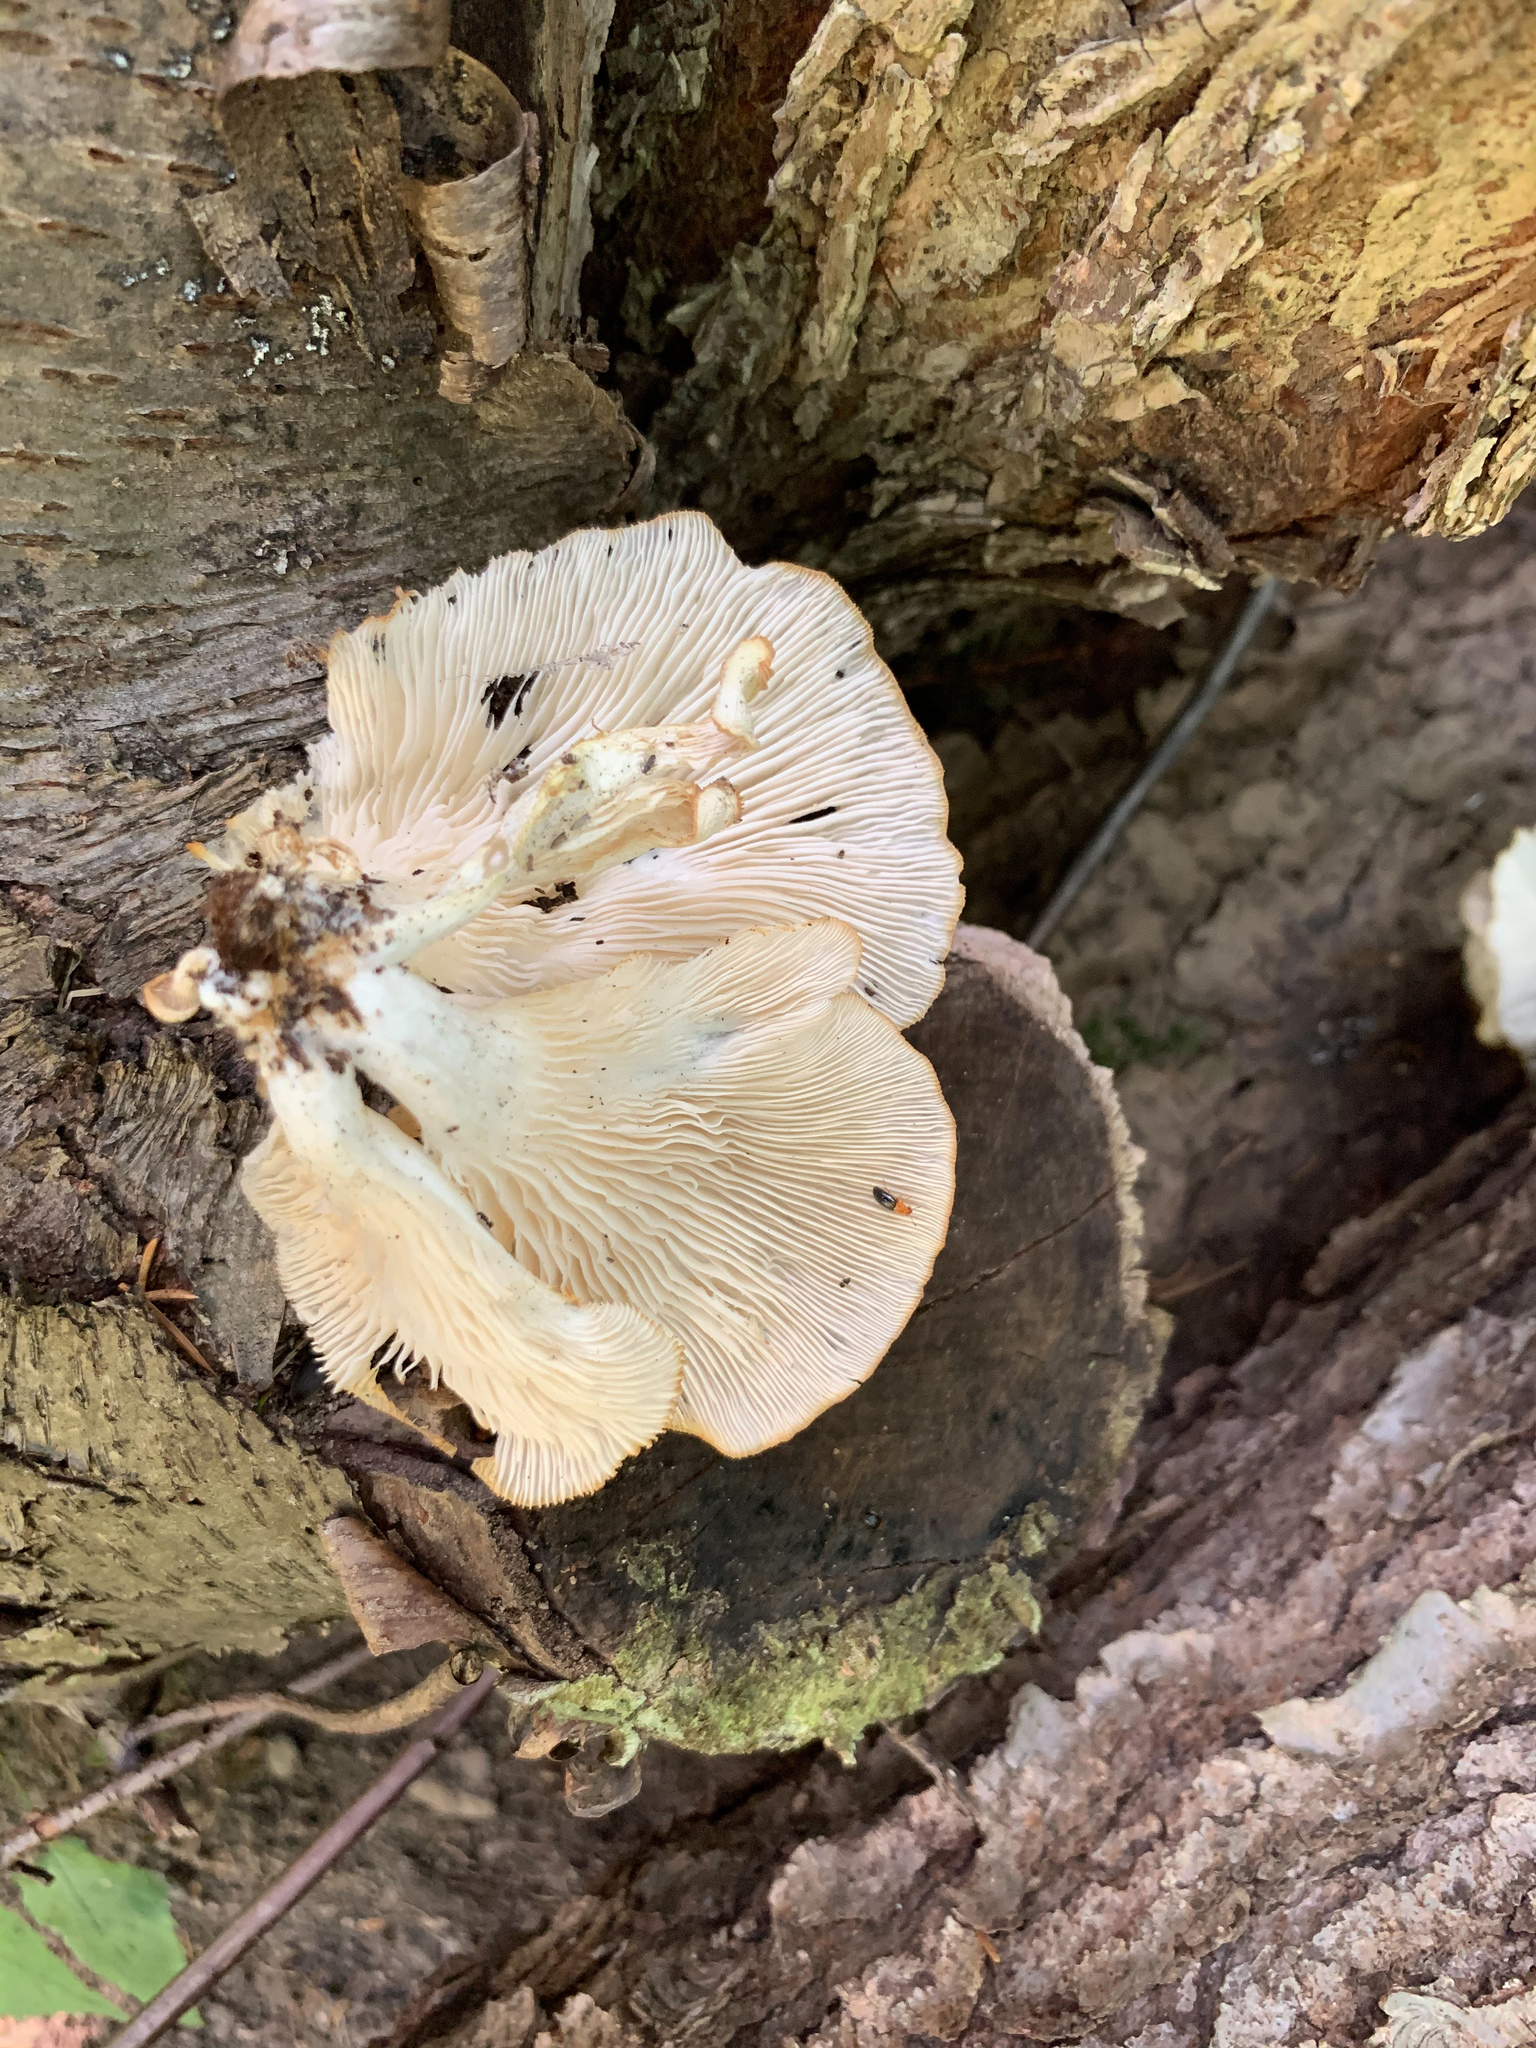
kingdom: Fungi
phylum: Basidiomycota
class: Agaricomycetes
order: Agaricales
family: Pleurotaceae
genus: Pleurotus
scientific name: Pleurotus pulmonarius
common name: Pale oyster
